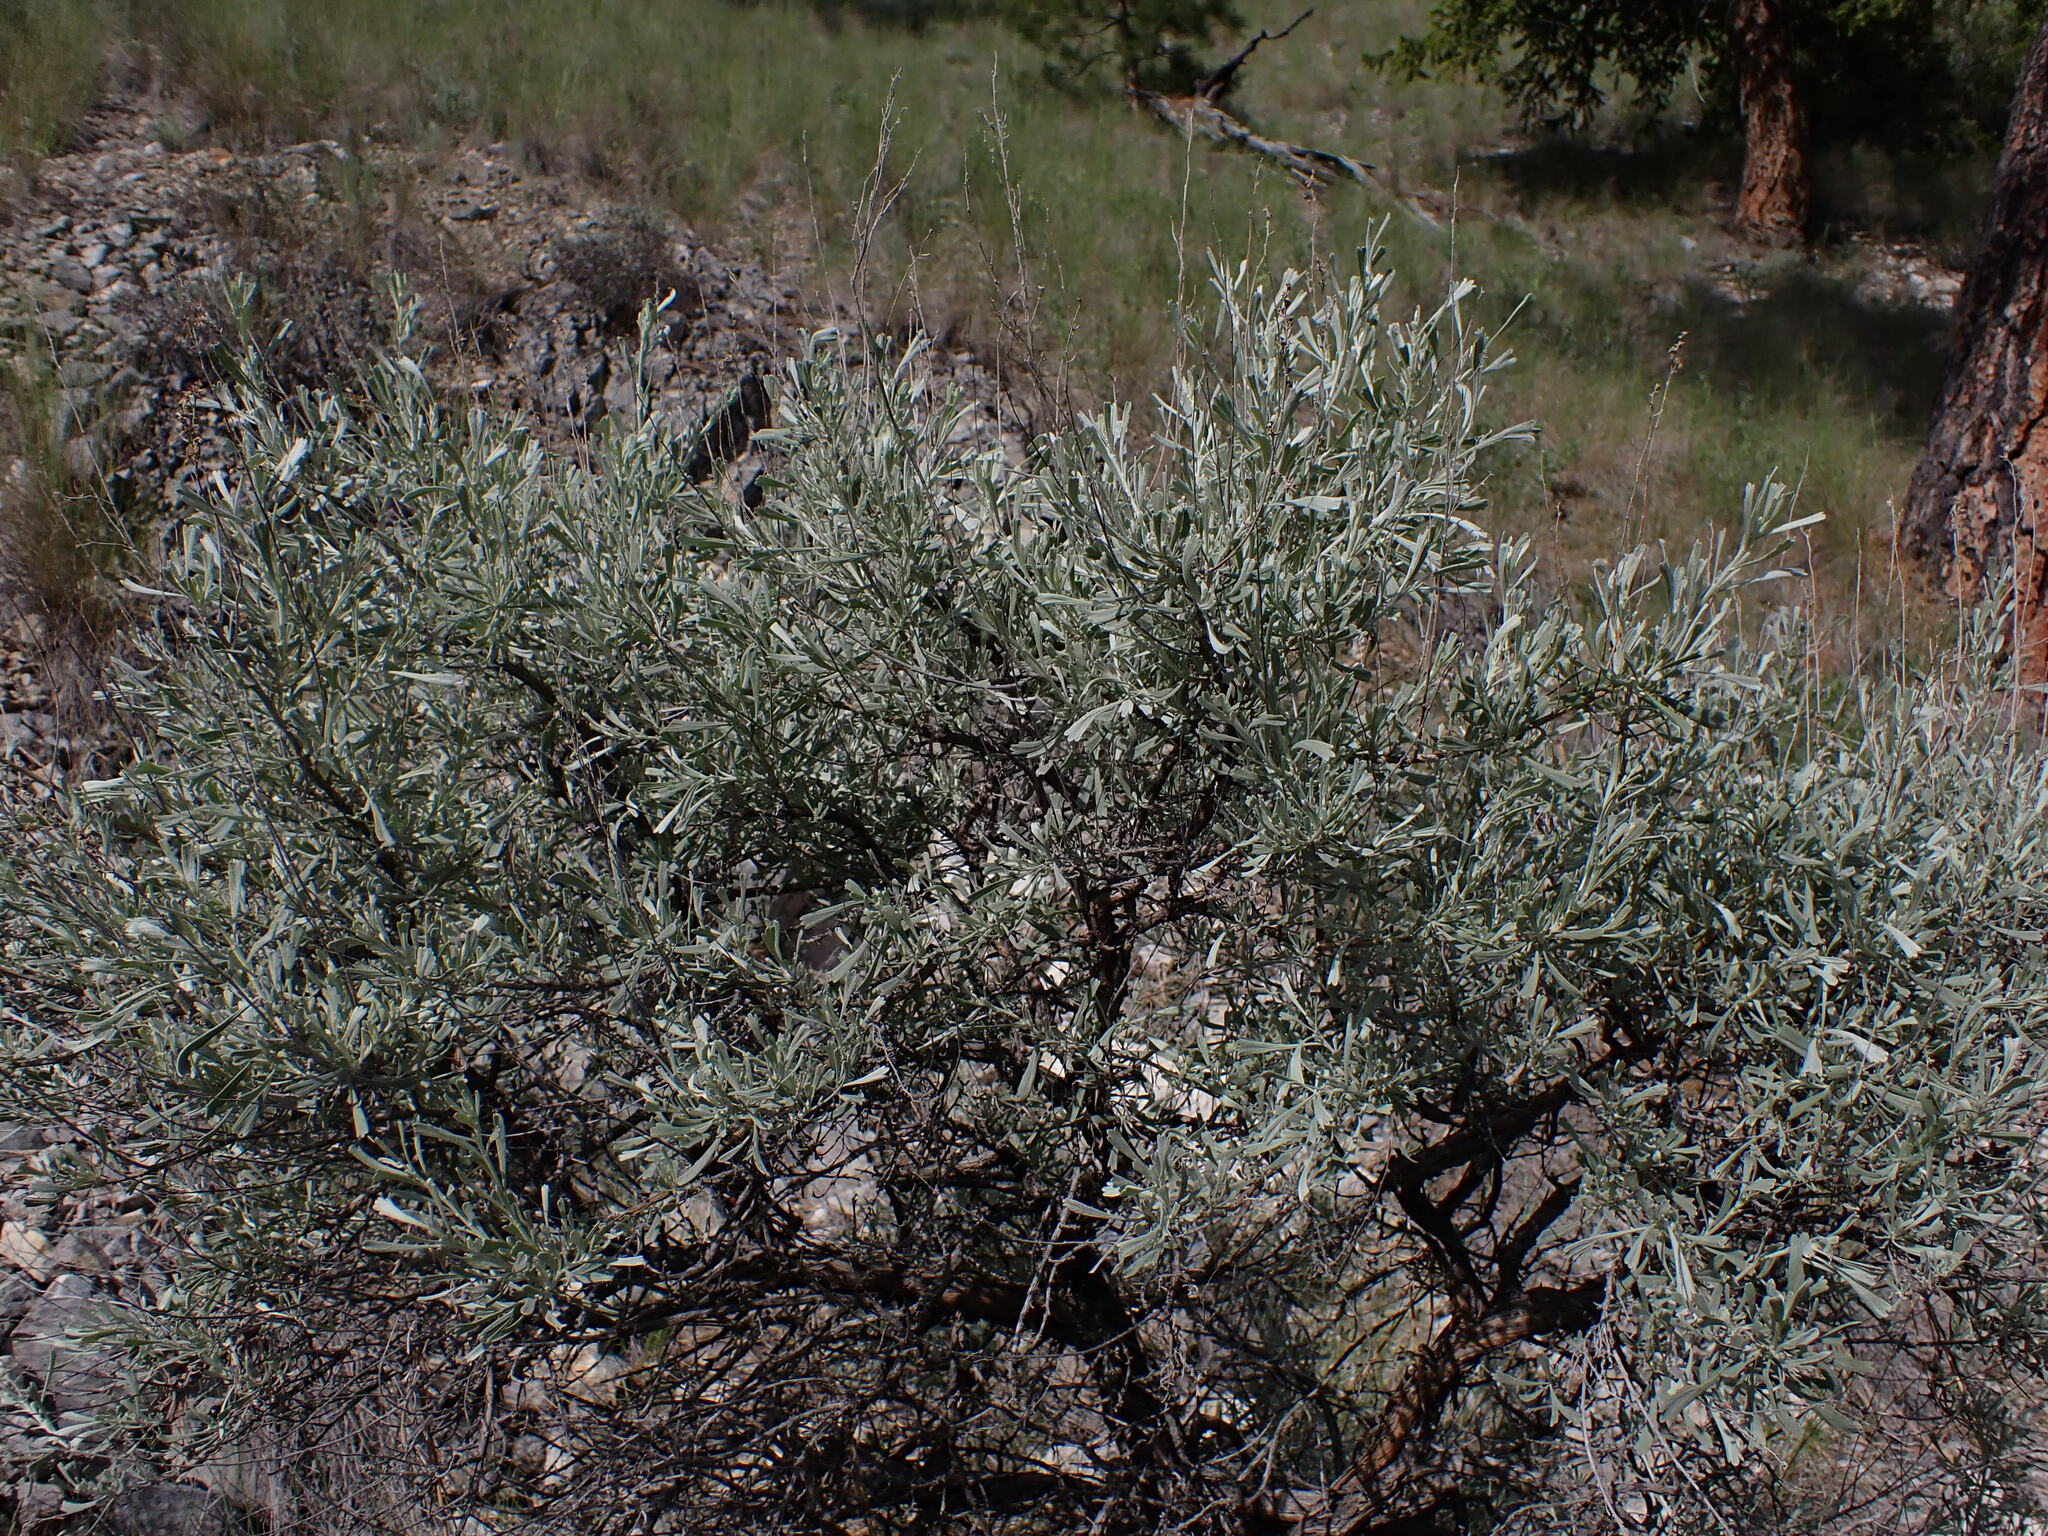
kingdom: Plantae
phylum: Tracheophyta
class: Magnoliopsida
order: Asterales
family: Asteraceae
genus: Artemisia
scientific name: Artemisia tridentata
